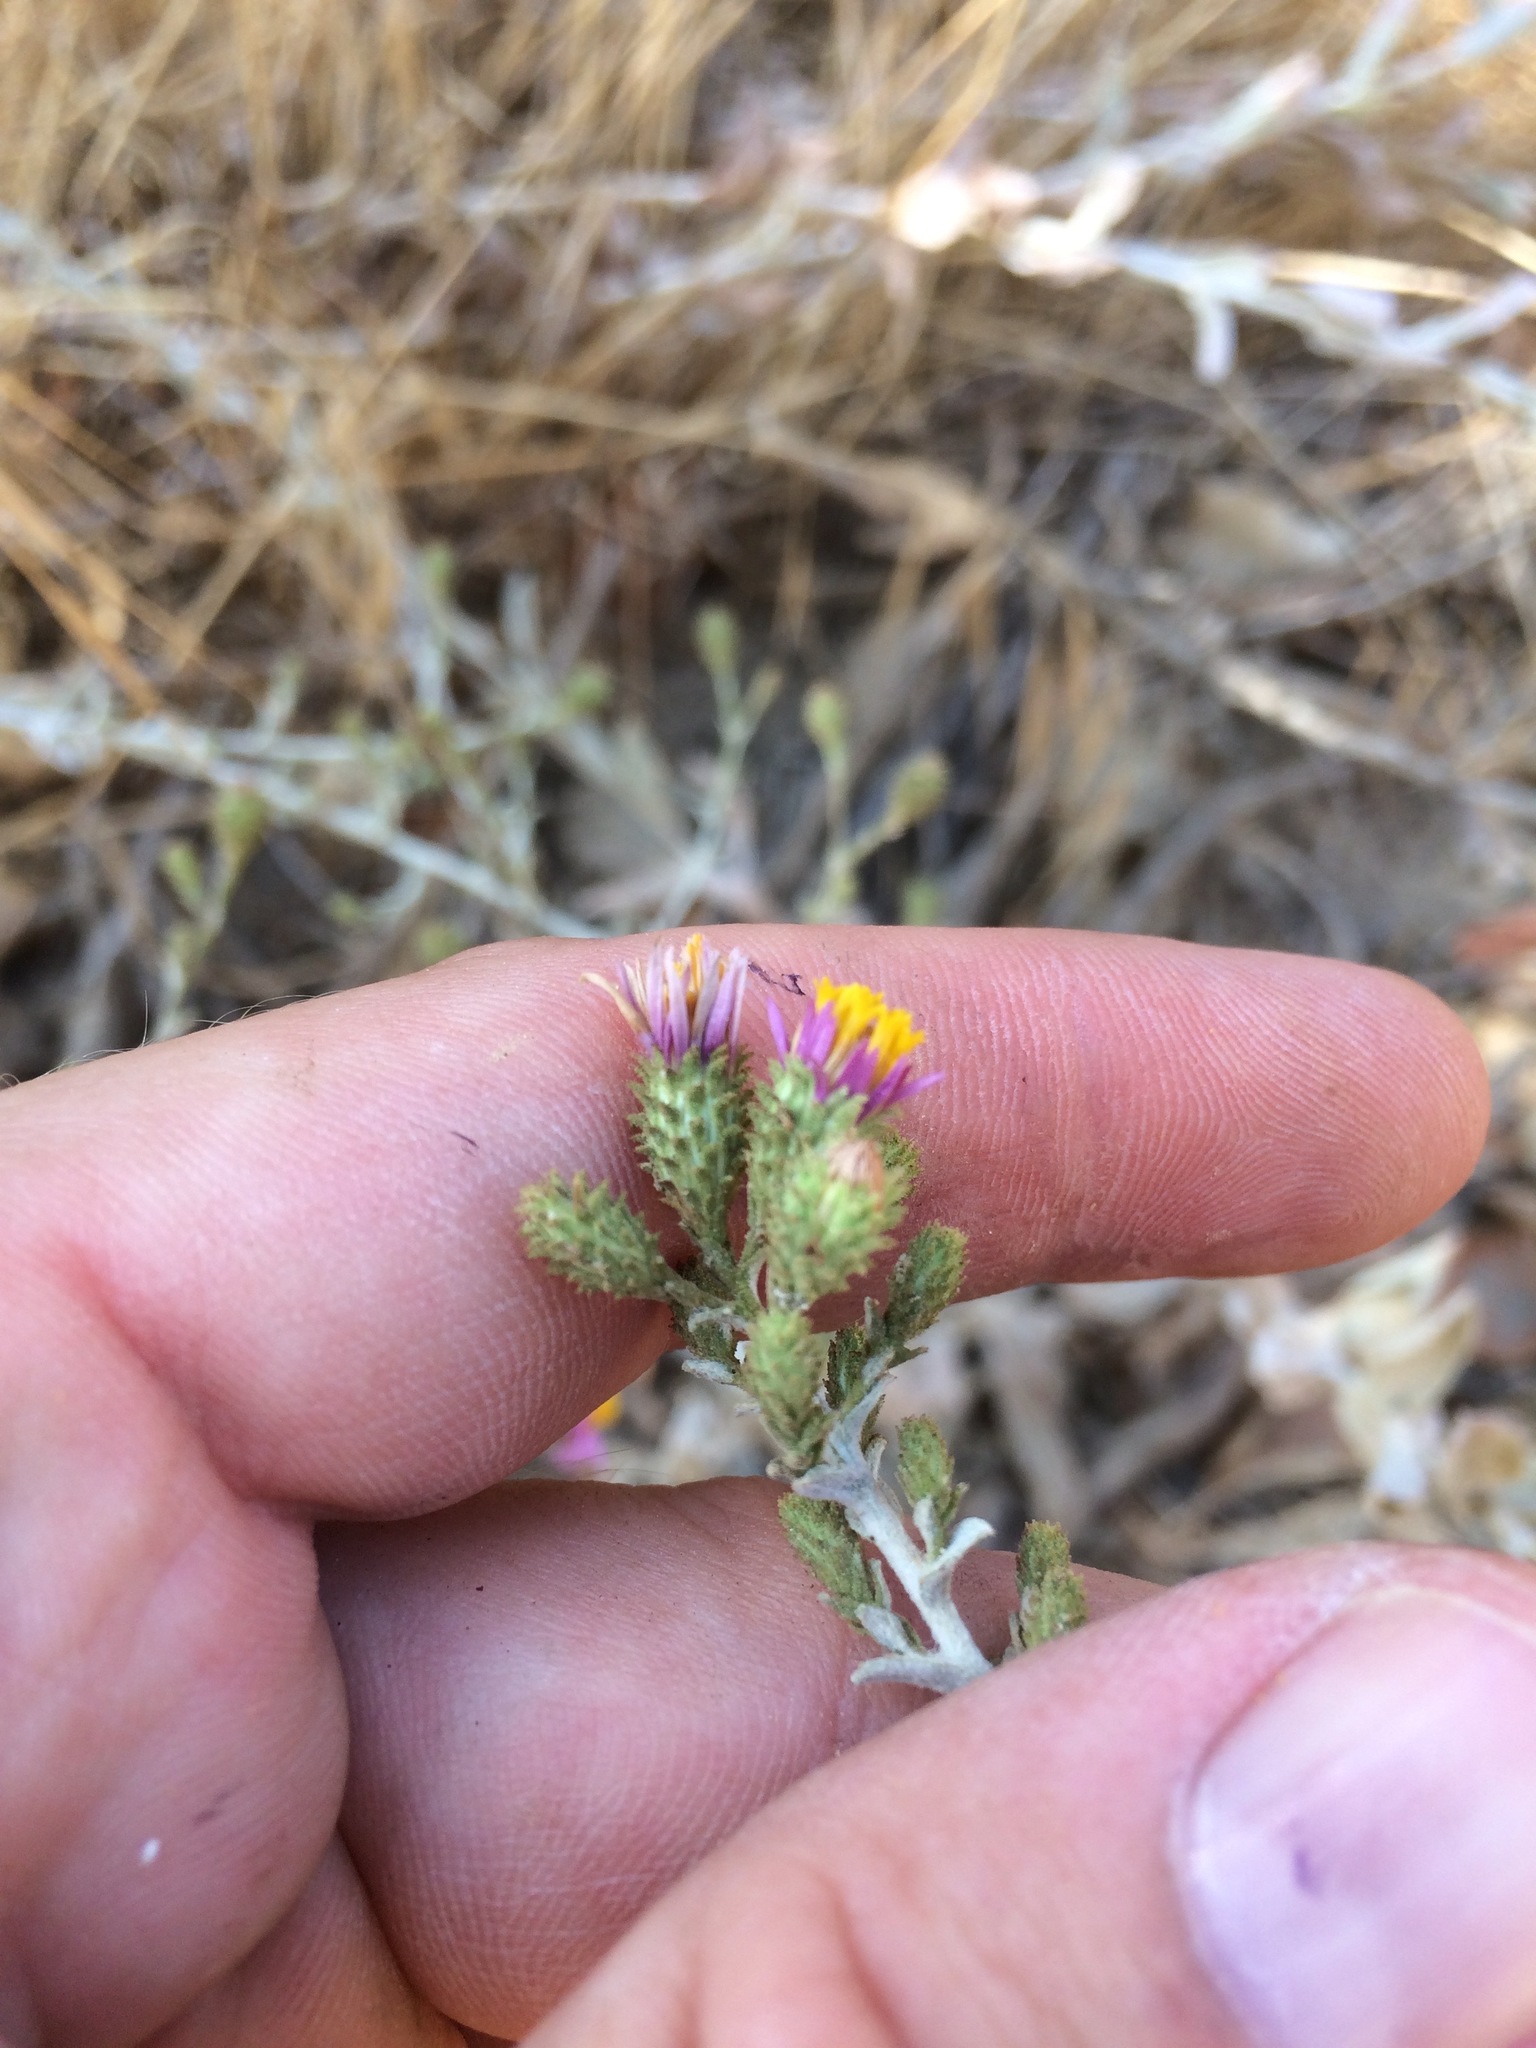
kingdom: Plantae
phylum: Tracheophyta
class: Magnoliopsida
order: Asterales
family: Asteraceae
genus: Corethrogyne
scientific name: Corethrogyne filaginifolia
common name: Sand-aster
